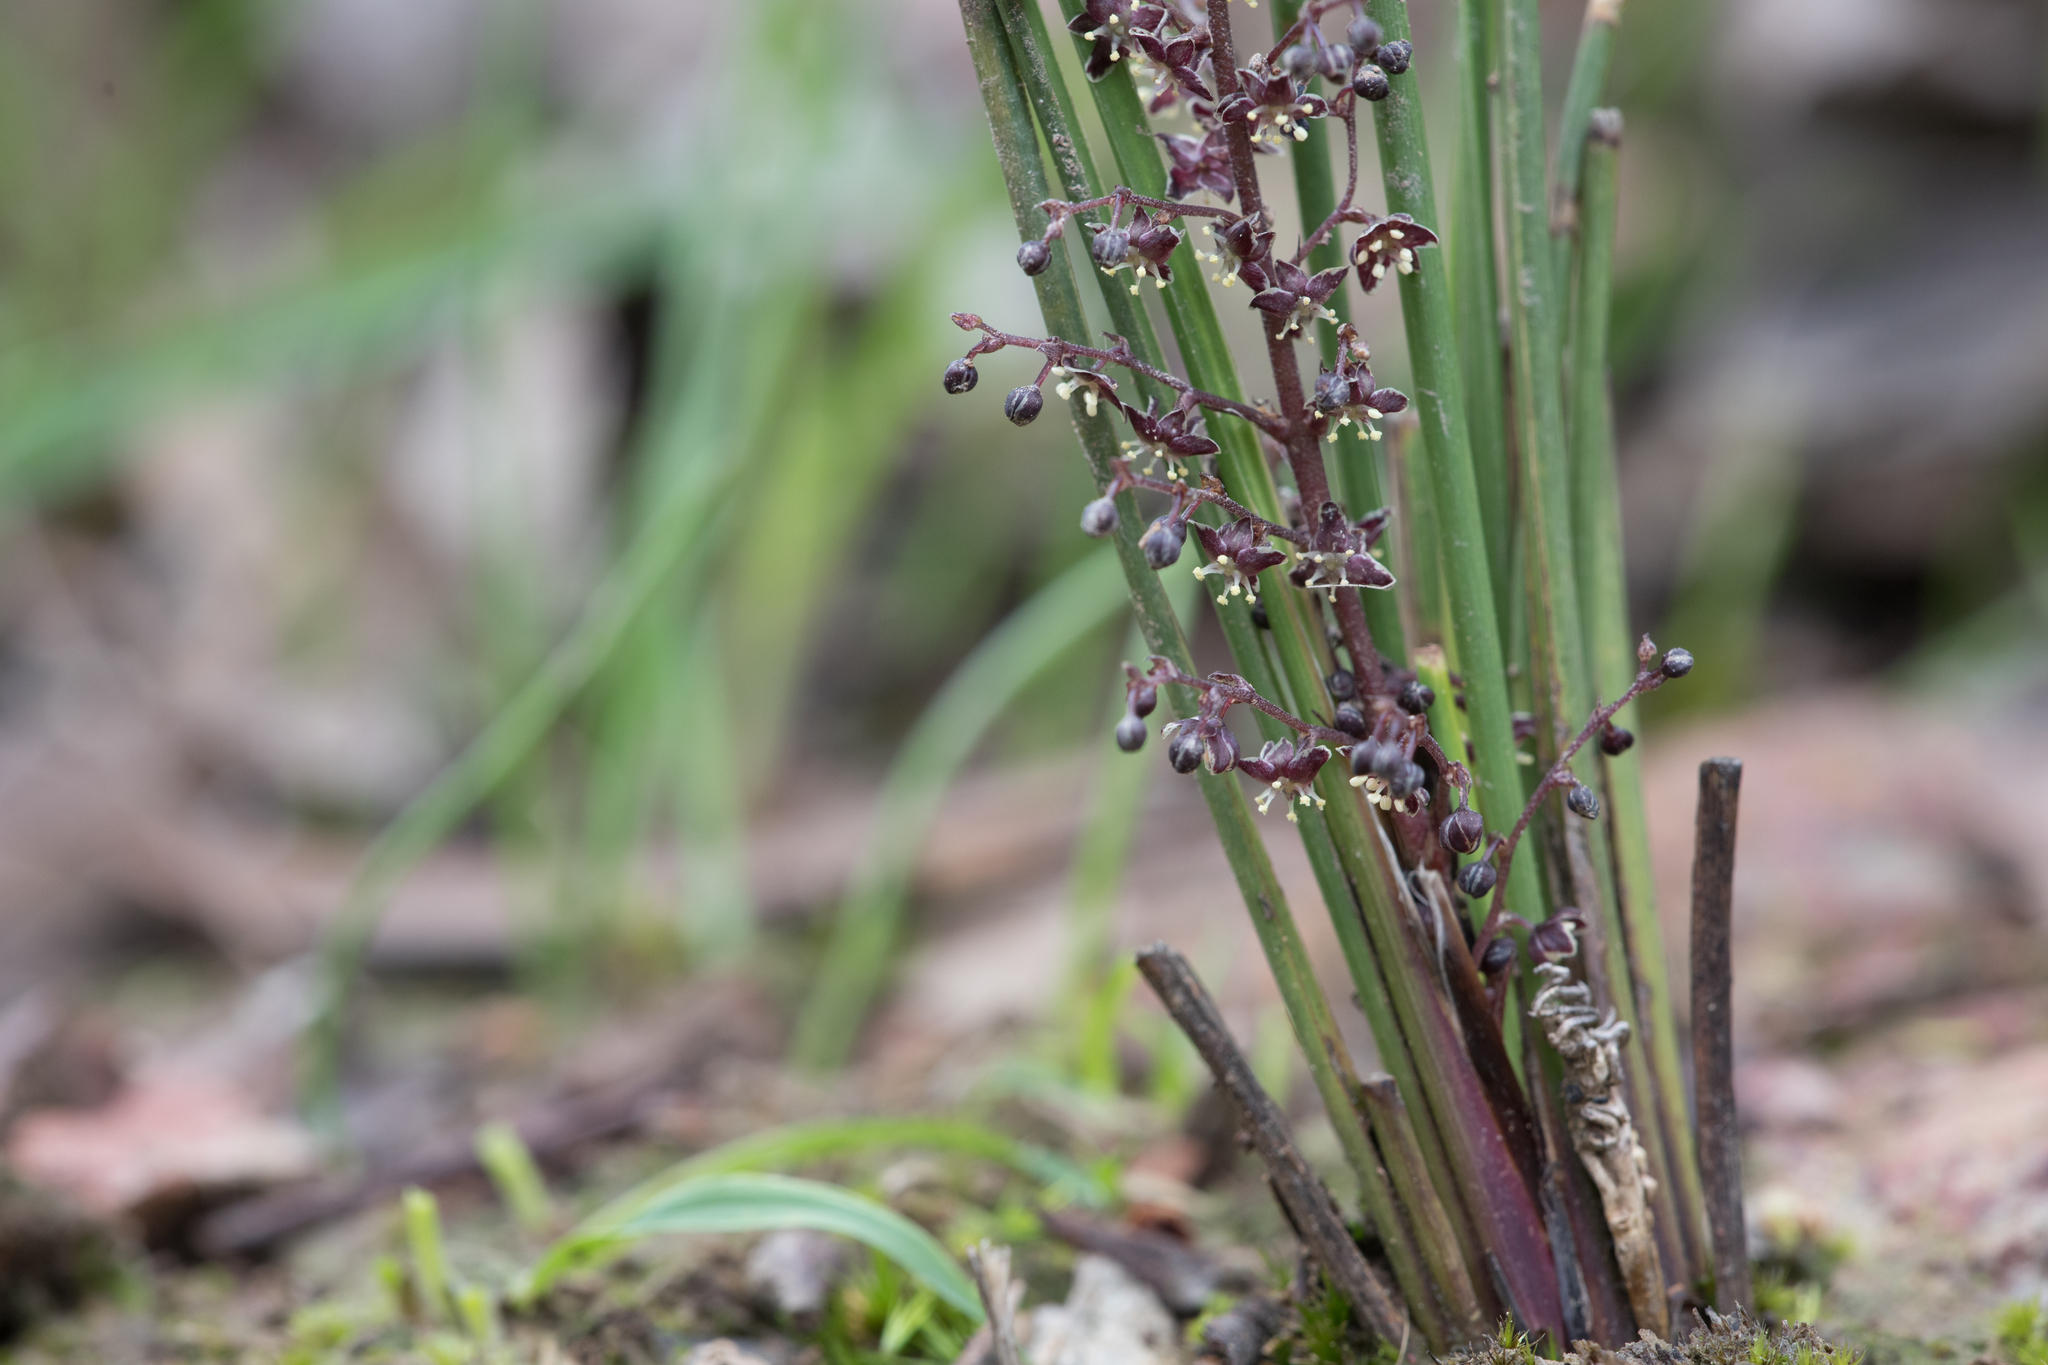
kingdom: Plantae
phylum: Tracheophyta
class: Liliopsida
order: Asparagales
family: Asparagaceae
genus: Lomandra
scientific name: Lomandra micrantha
